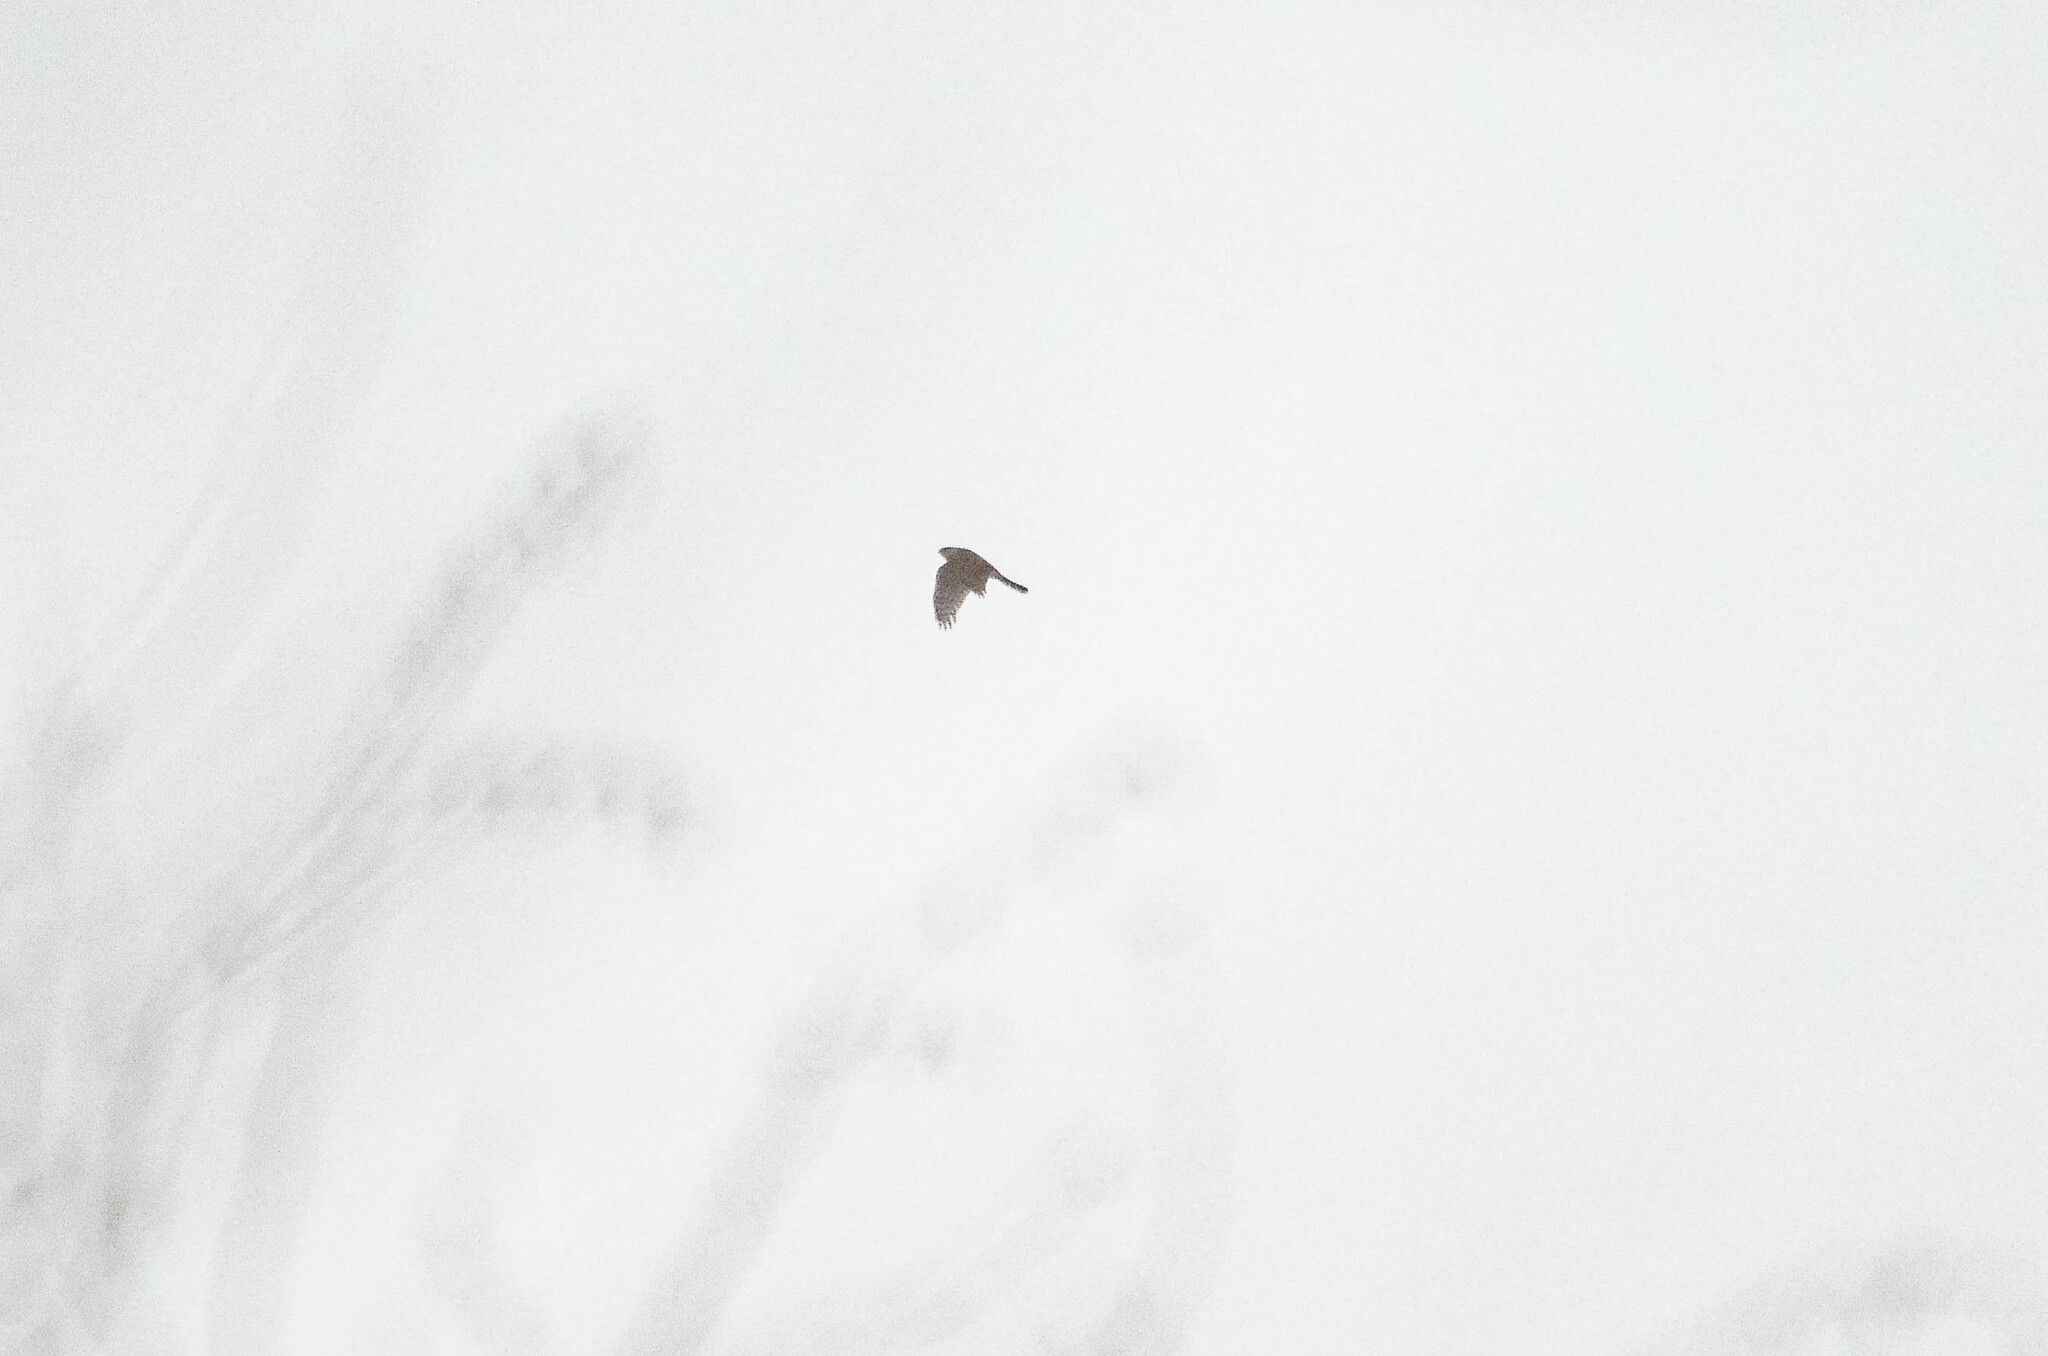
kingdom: Animalia
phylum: Chordata
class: Aves
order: Accipitriformes
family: Accipitridae
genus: Accipiter
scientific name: Accipiter nisus
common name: Eurasian sparrowhawk
